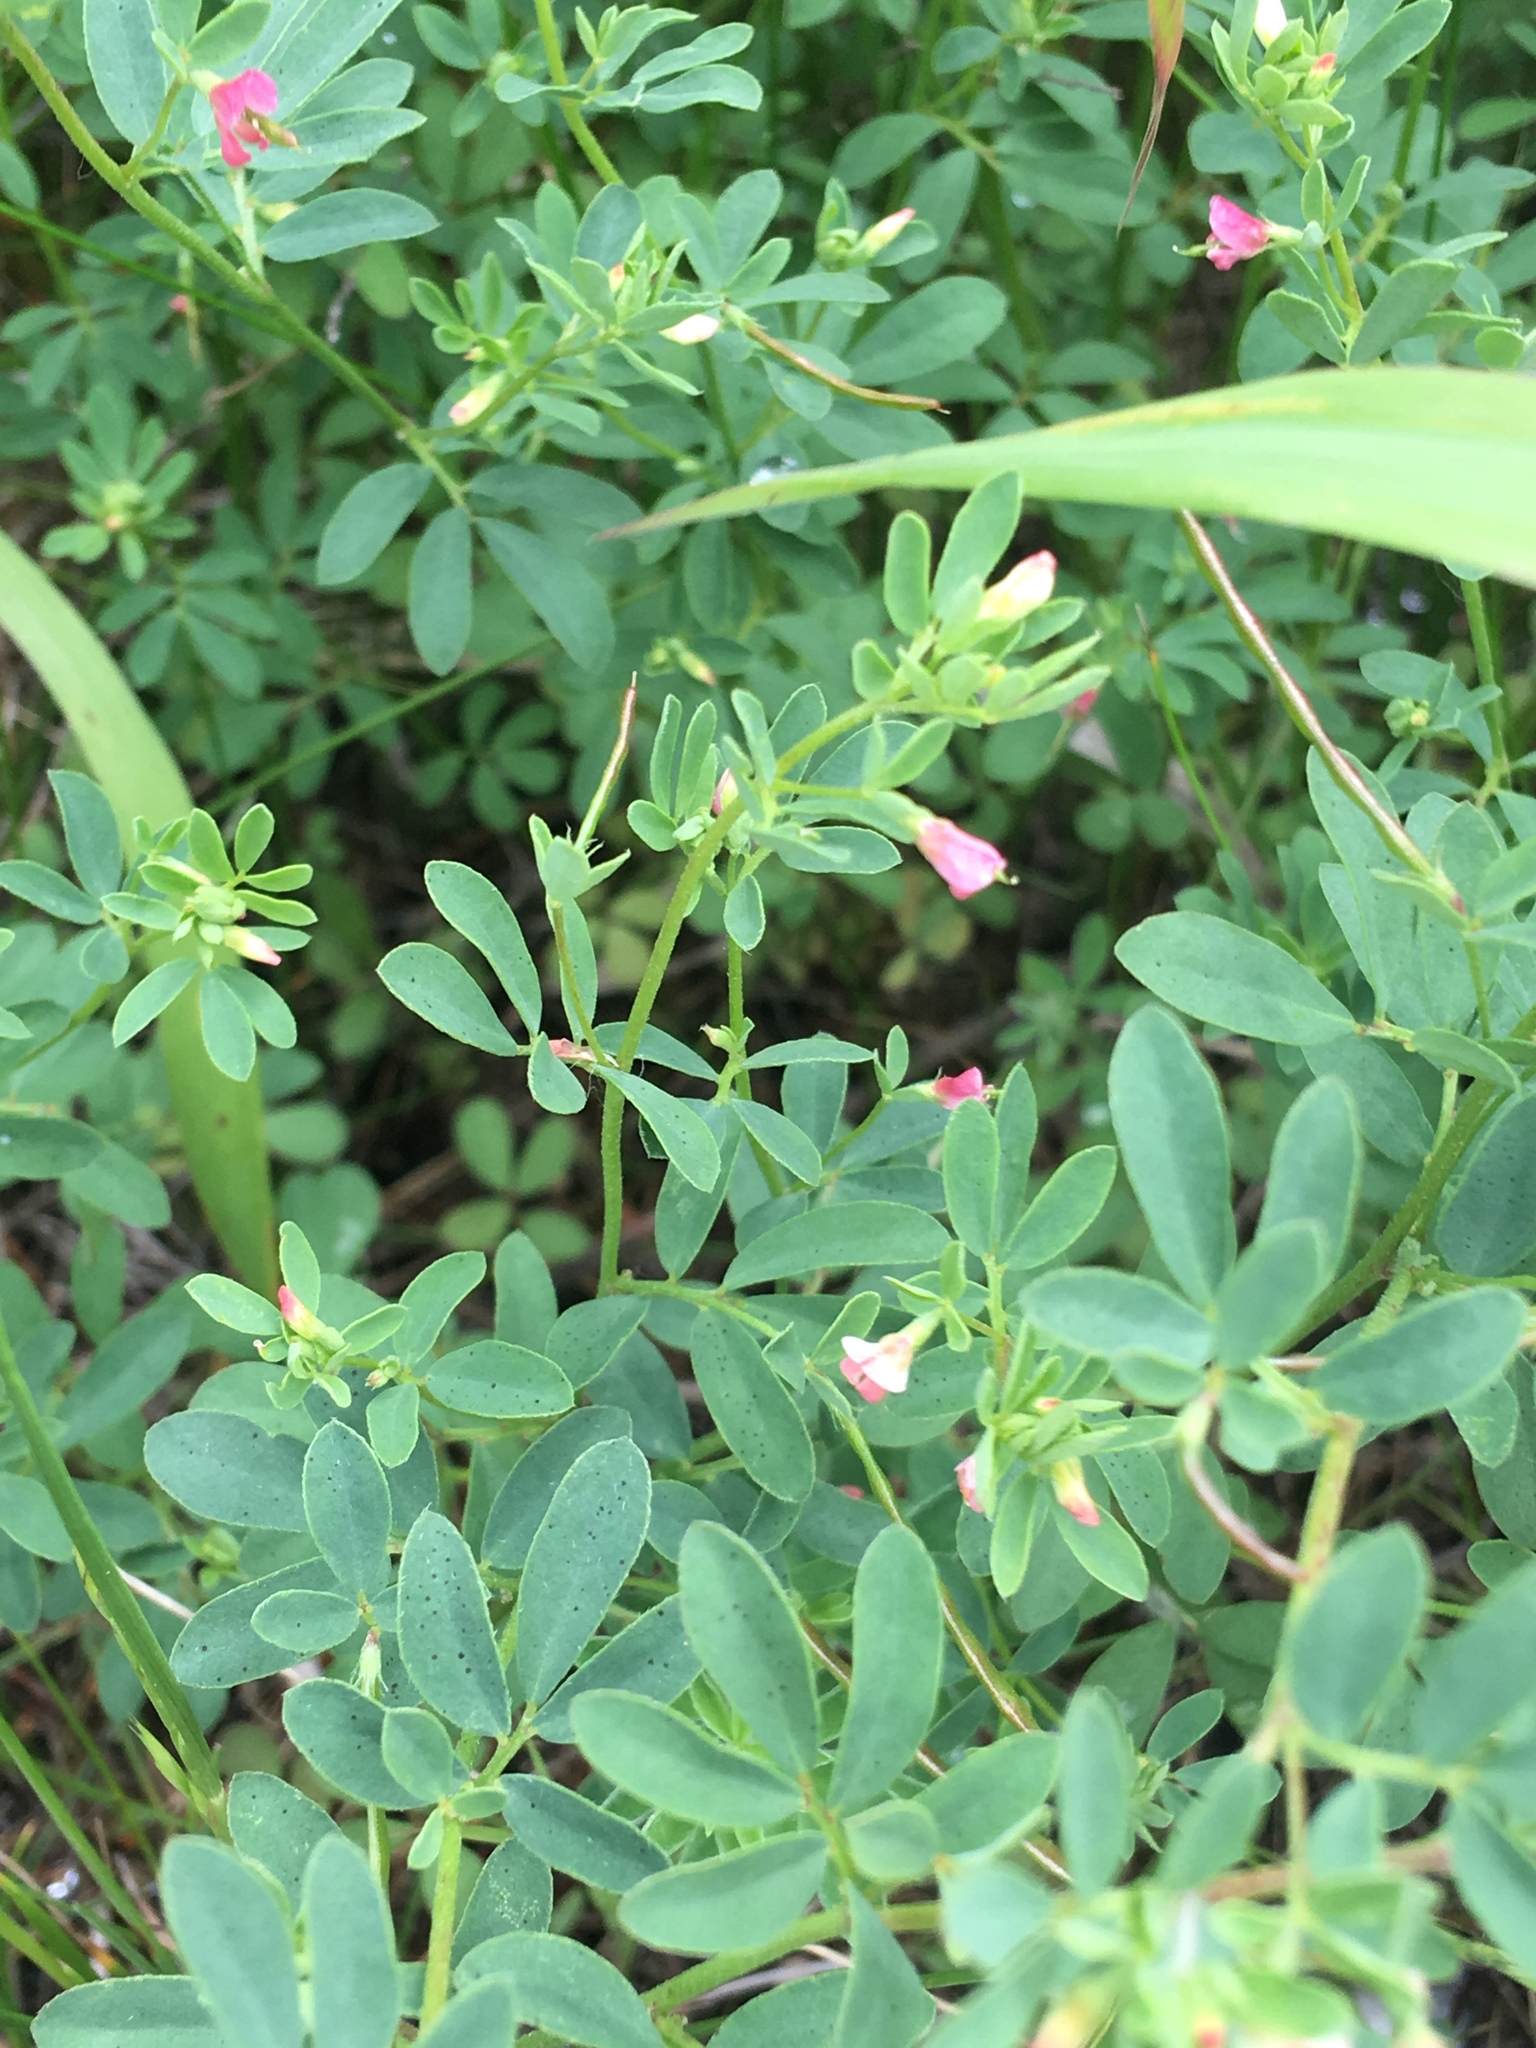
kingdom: Plantae
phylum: Tracheophyta
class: Magnoliopsida
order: Fabales
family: Fabaceae
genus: Acmispon
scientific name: Acmispon parviflorus
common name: Desert deer-vetch
